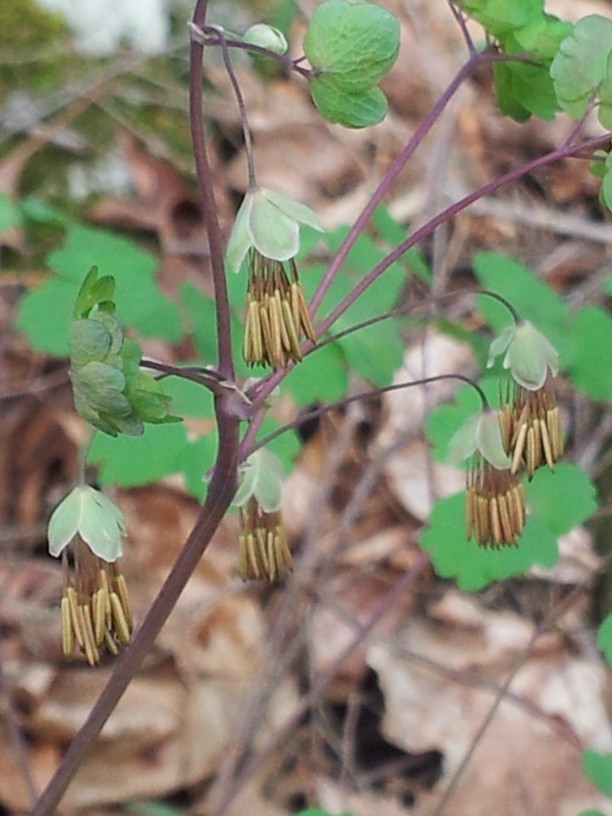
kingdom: Plantae
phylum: Tracheophyta
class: Magnoliopsida
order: Ranunculales
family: Ranunculaceae
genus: Thalictrum
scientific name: Thalictrum dioicum
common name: Early meadow-rue
